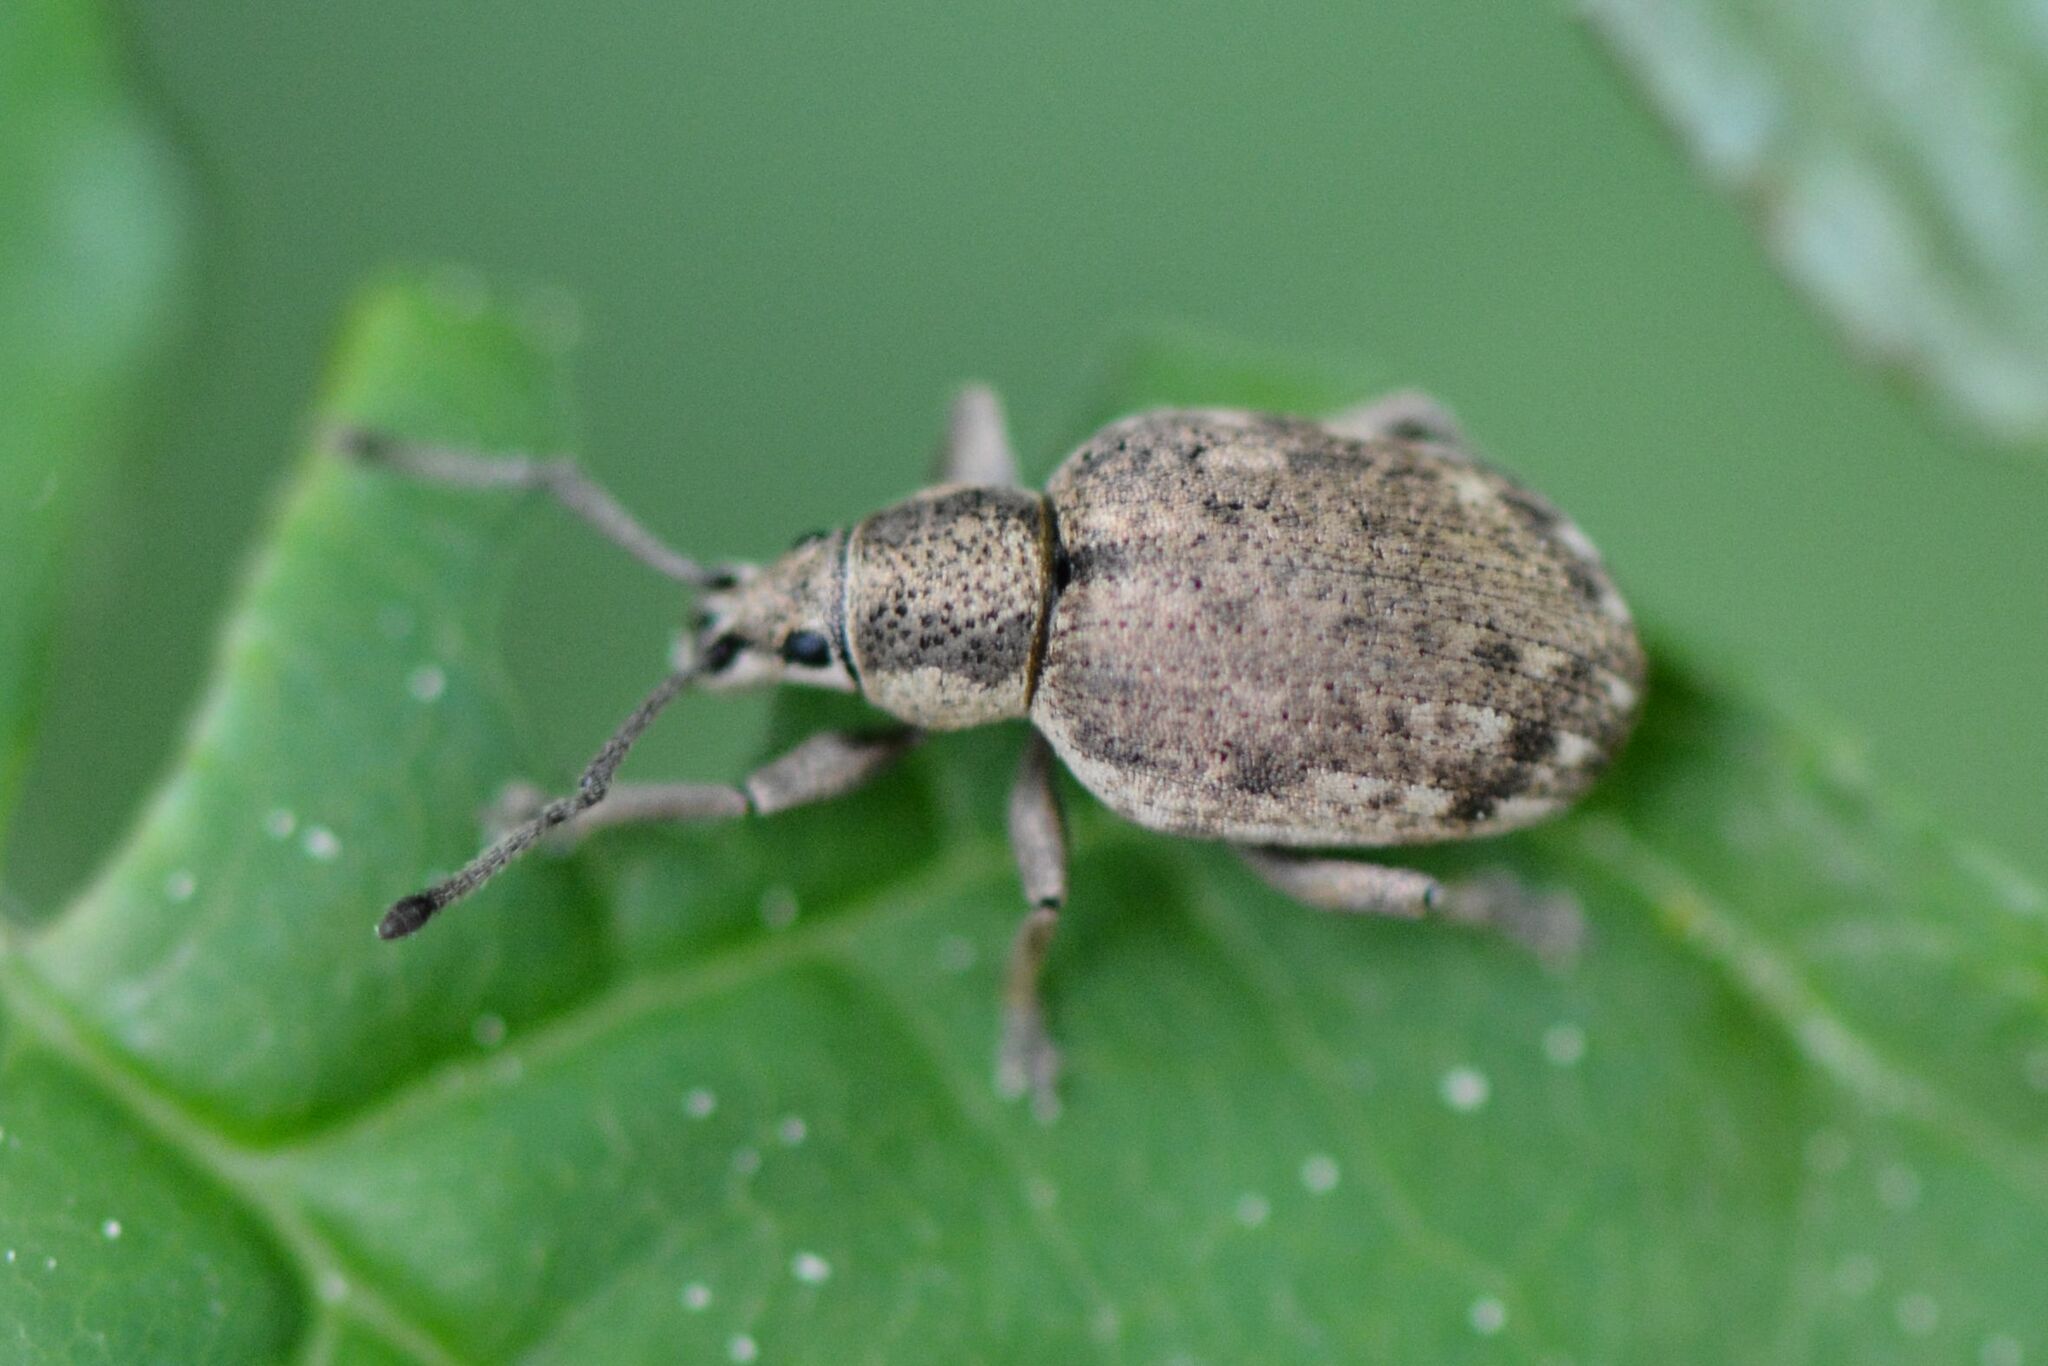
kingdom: Animalia
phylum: Arthropoda
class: Insecta
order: Coleoptera
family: Curculionidae
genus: Peritelus
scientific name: Peritelus sphaeroides
